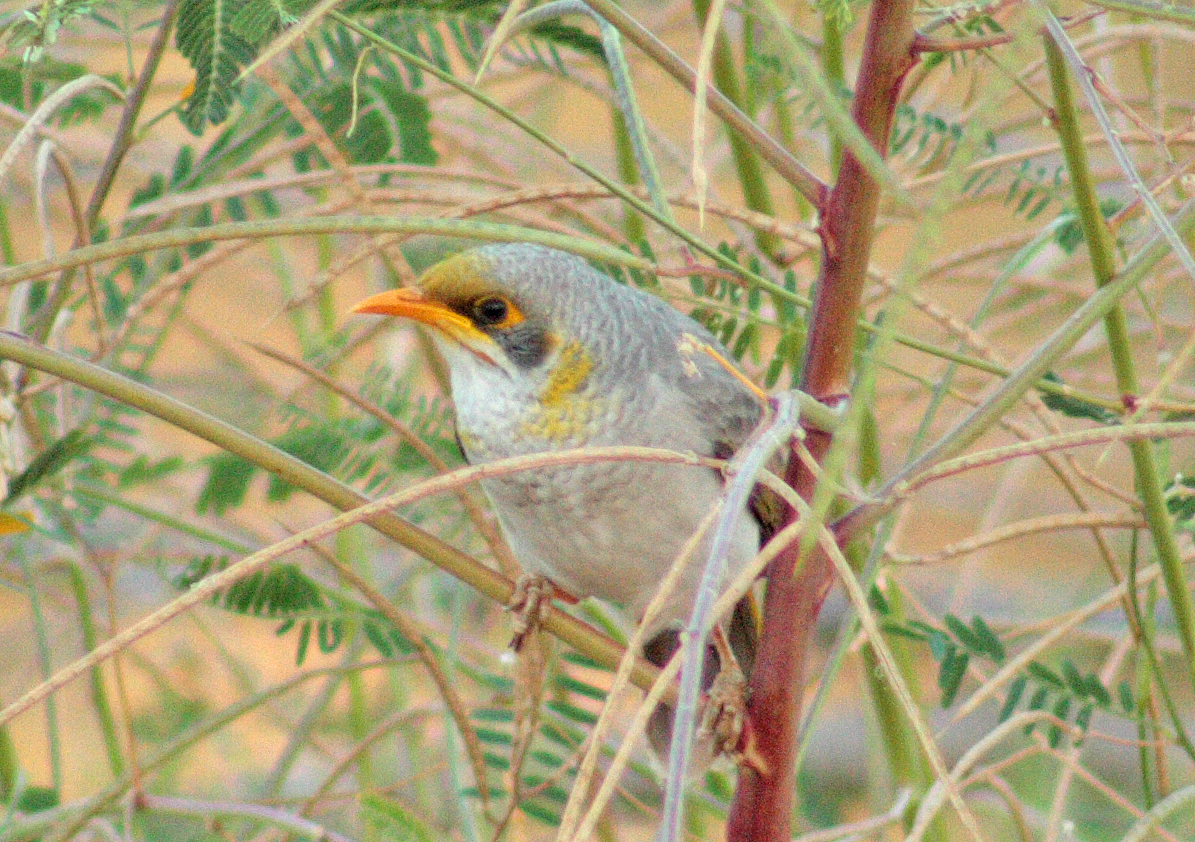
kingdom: Animalia
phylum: Chordata
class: Aves
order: Passeriformes
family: Meliphagidae
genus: Manorina
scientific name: Manorina flavigula
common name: Yellow-throated miner
